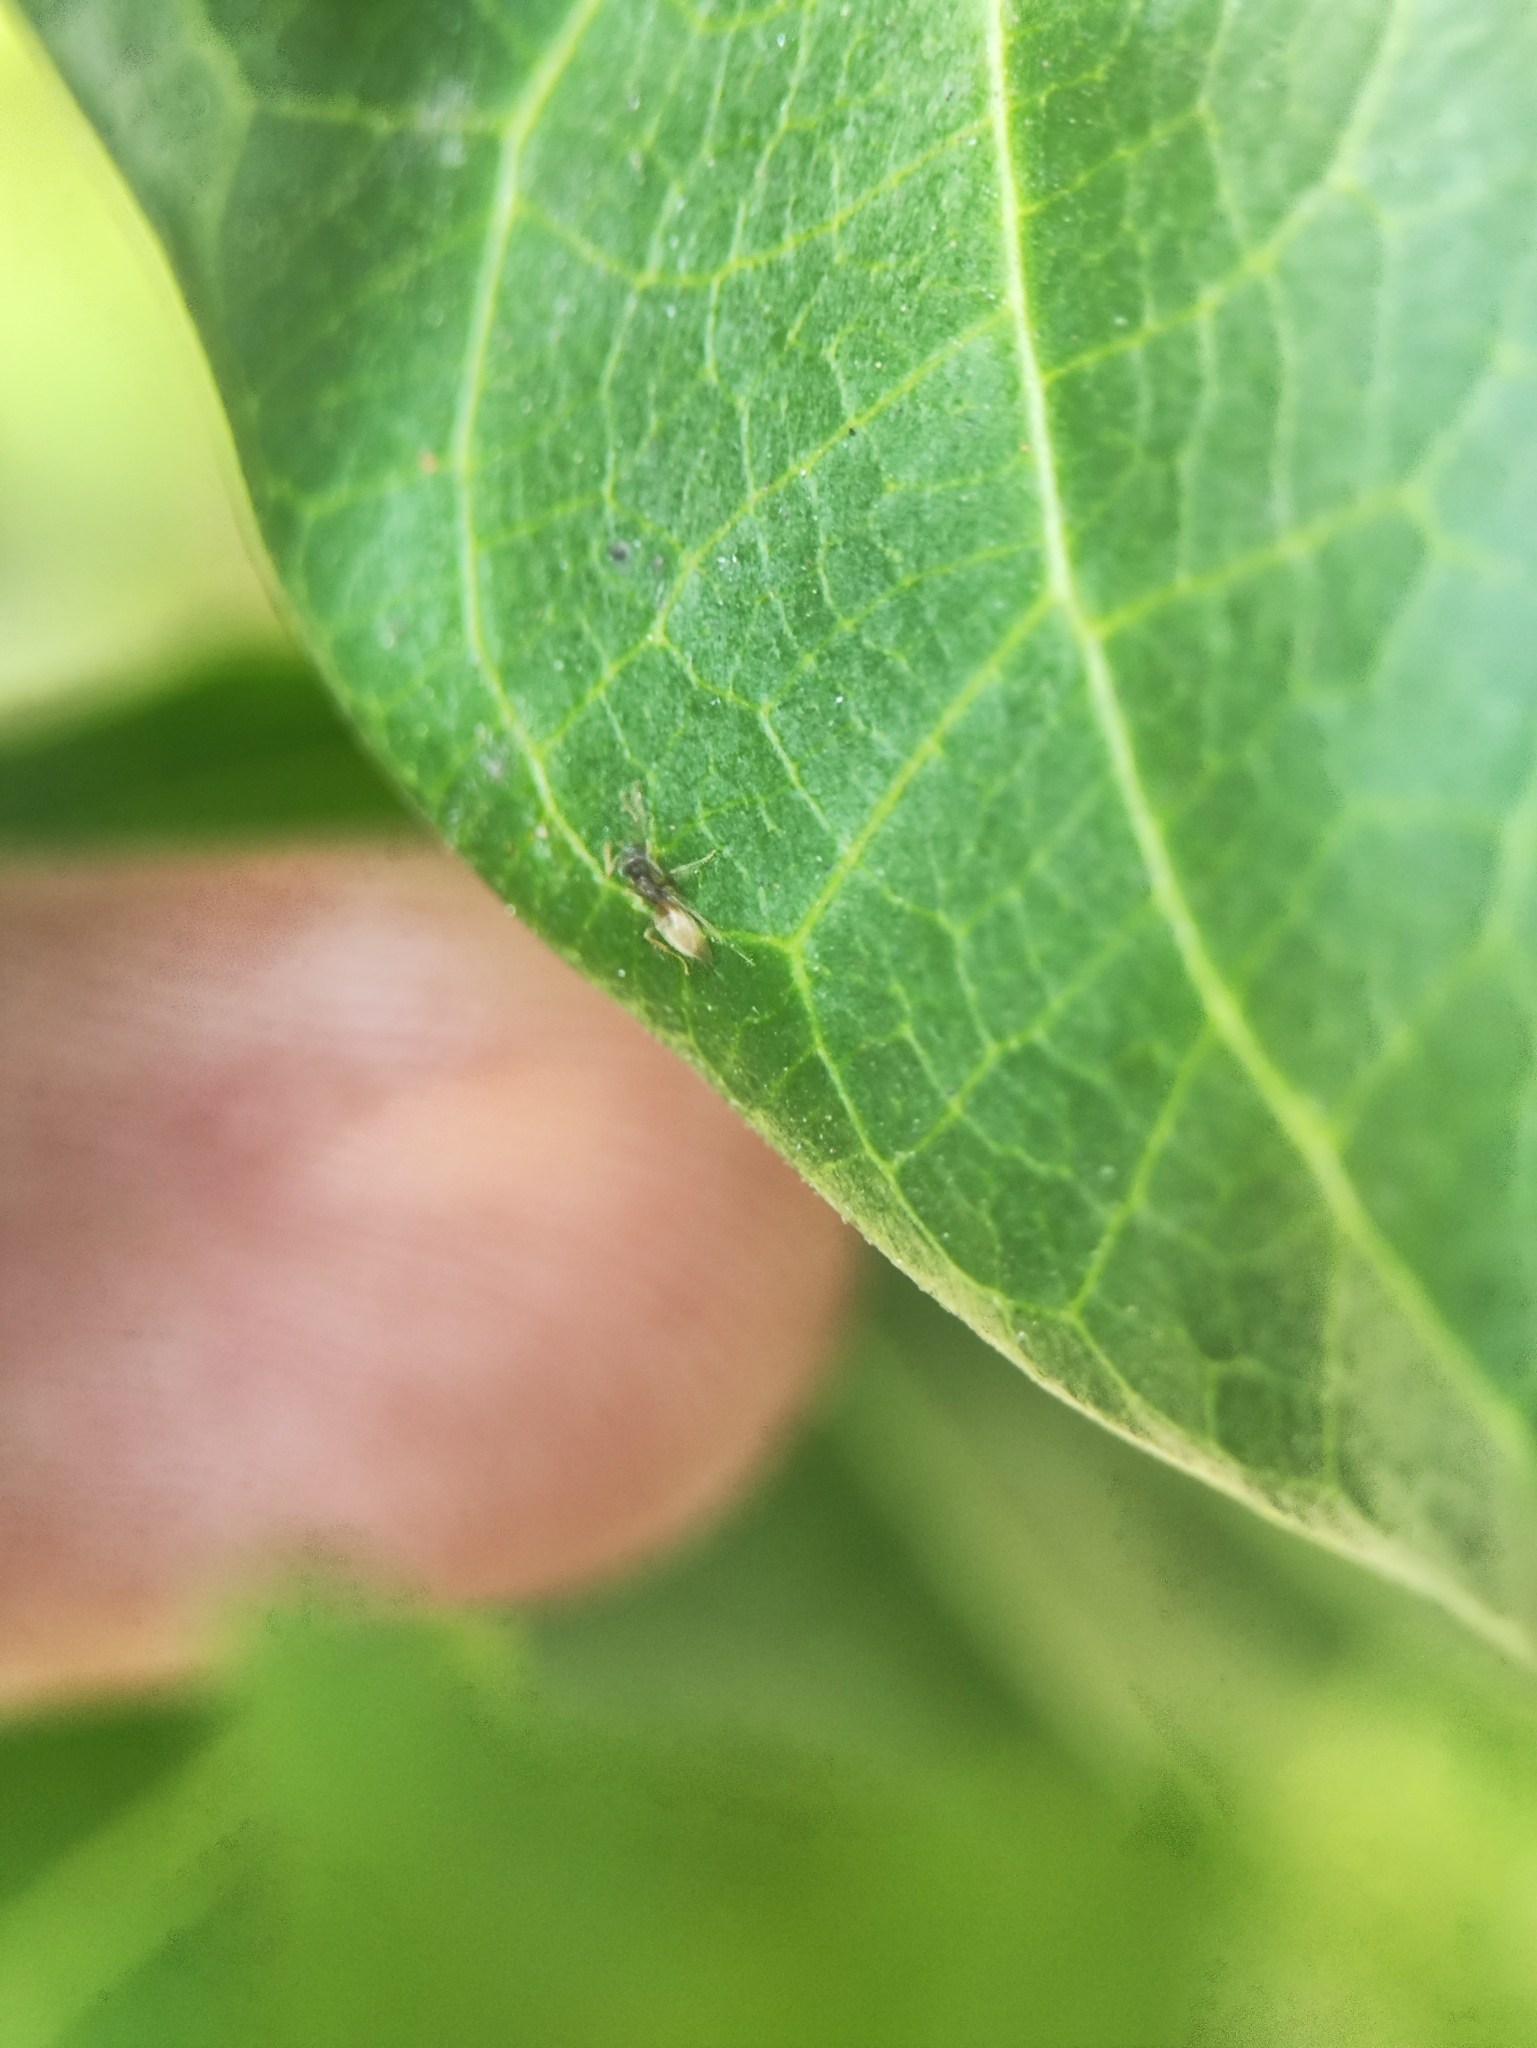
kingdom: Animalia
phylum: Arthropoda
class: Insecta
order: Hymenoptera
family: Formicidae
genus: Tapinoma
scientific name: Tapinoma melanocephalum
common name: Ghost ant
